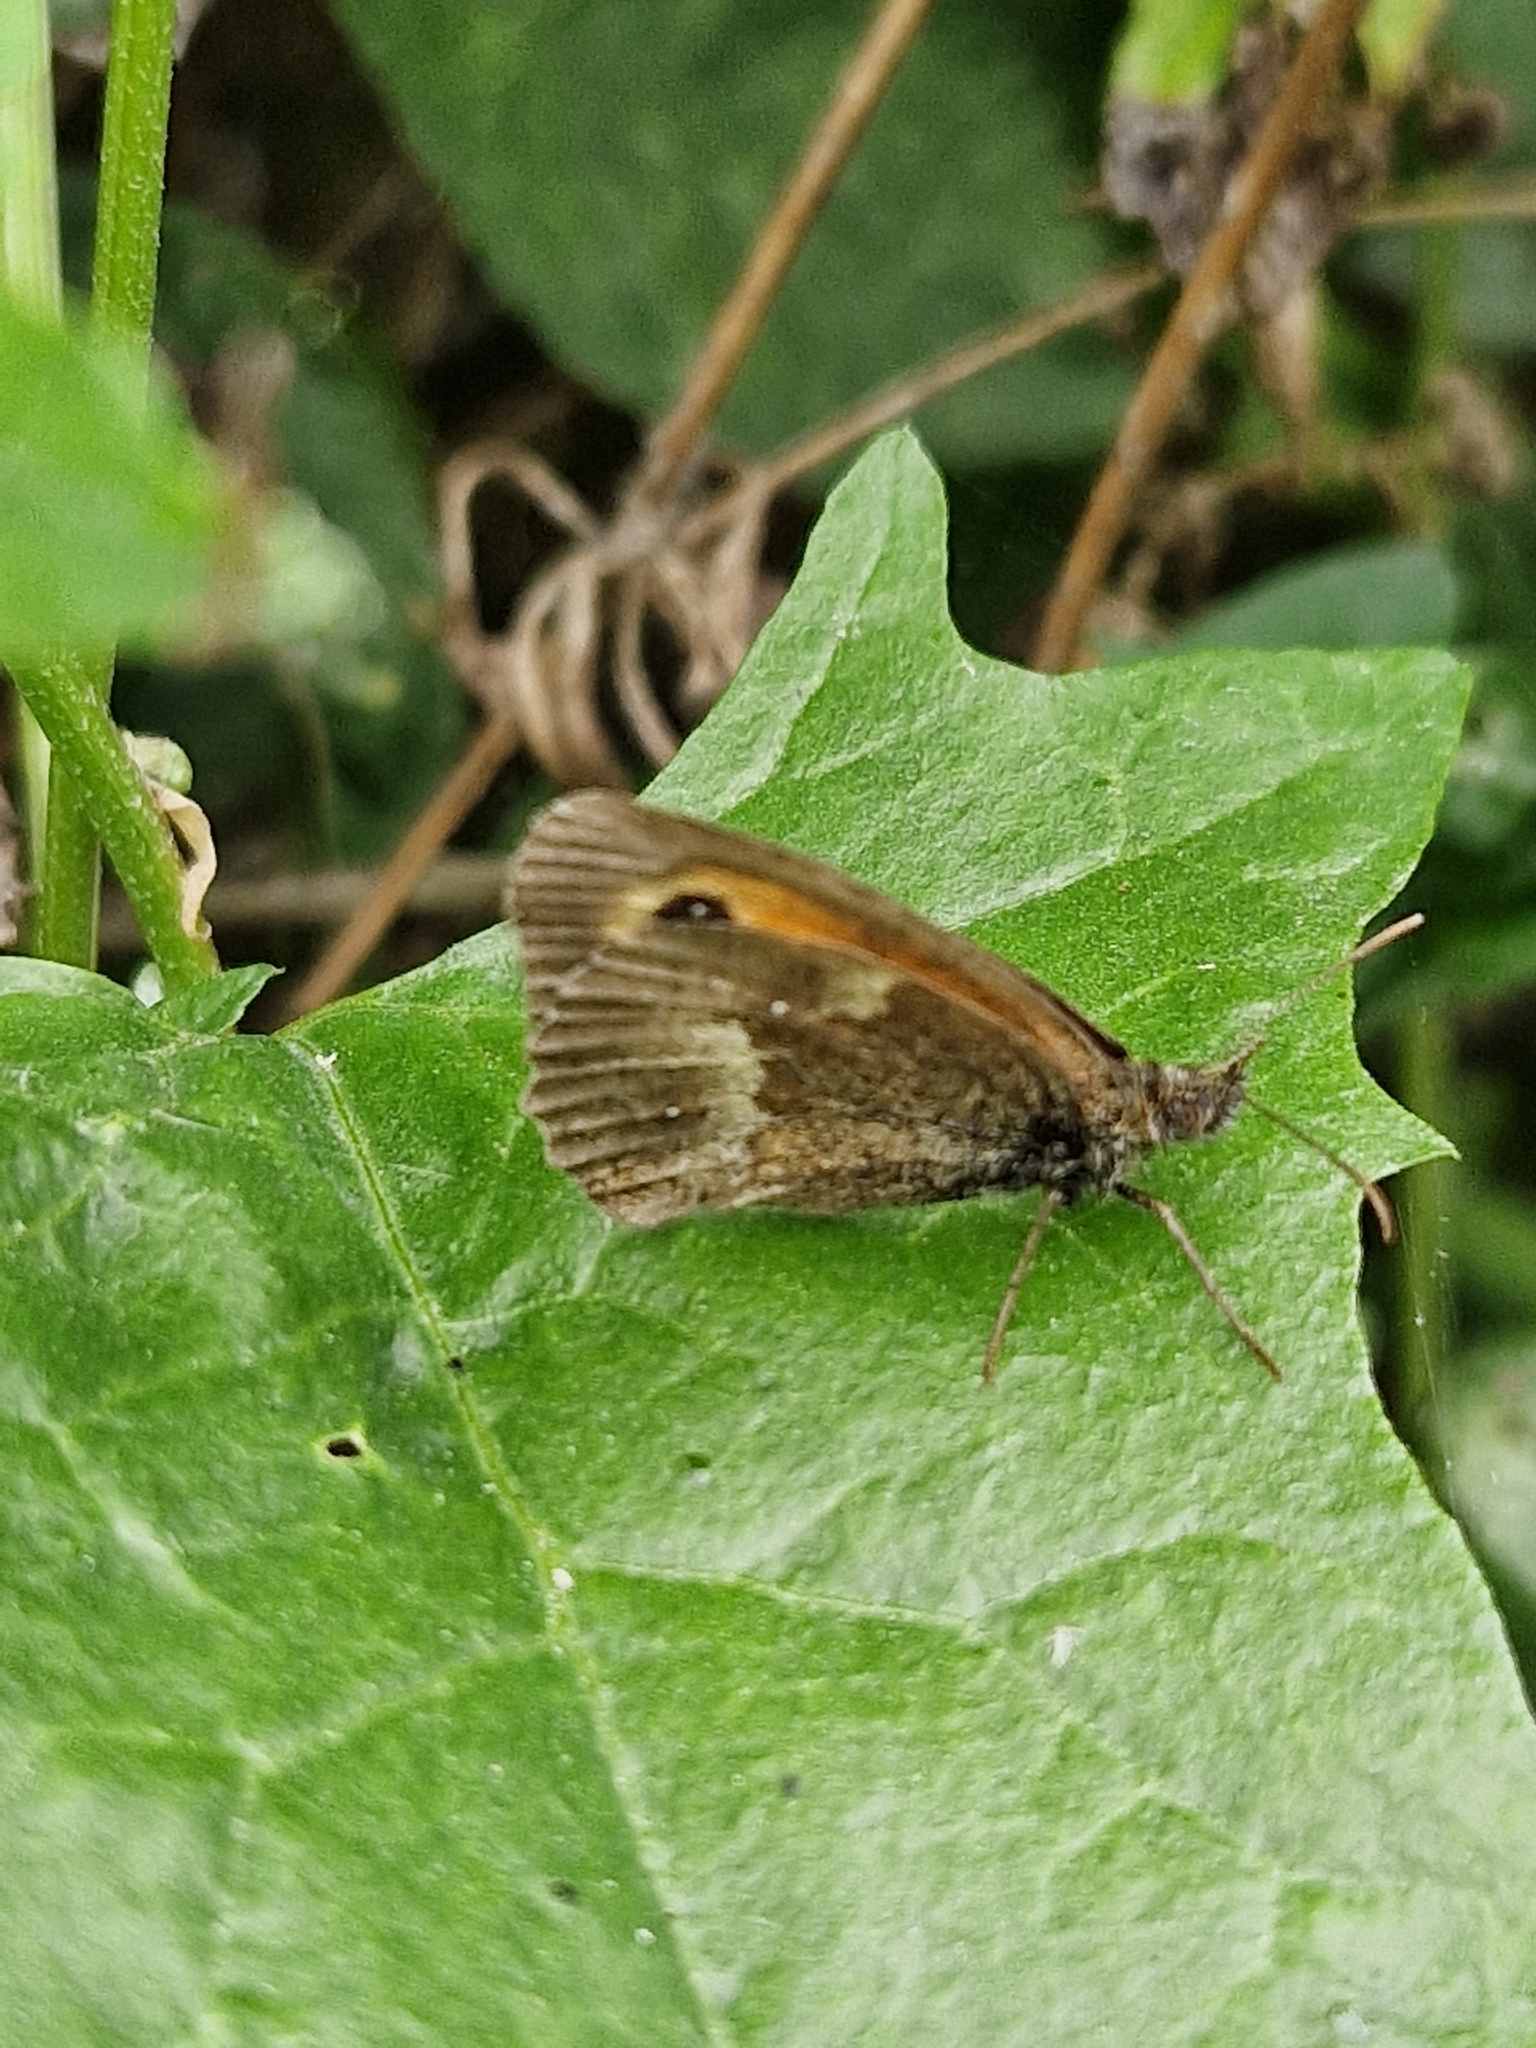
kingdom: Animalia
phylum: Arthropoda
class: Insecta
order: Lepidoptera
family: Nymphalidae
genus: Pyronia
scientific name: Pyronia tithonus
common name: Gatekeeper
